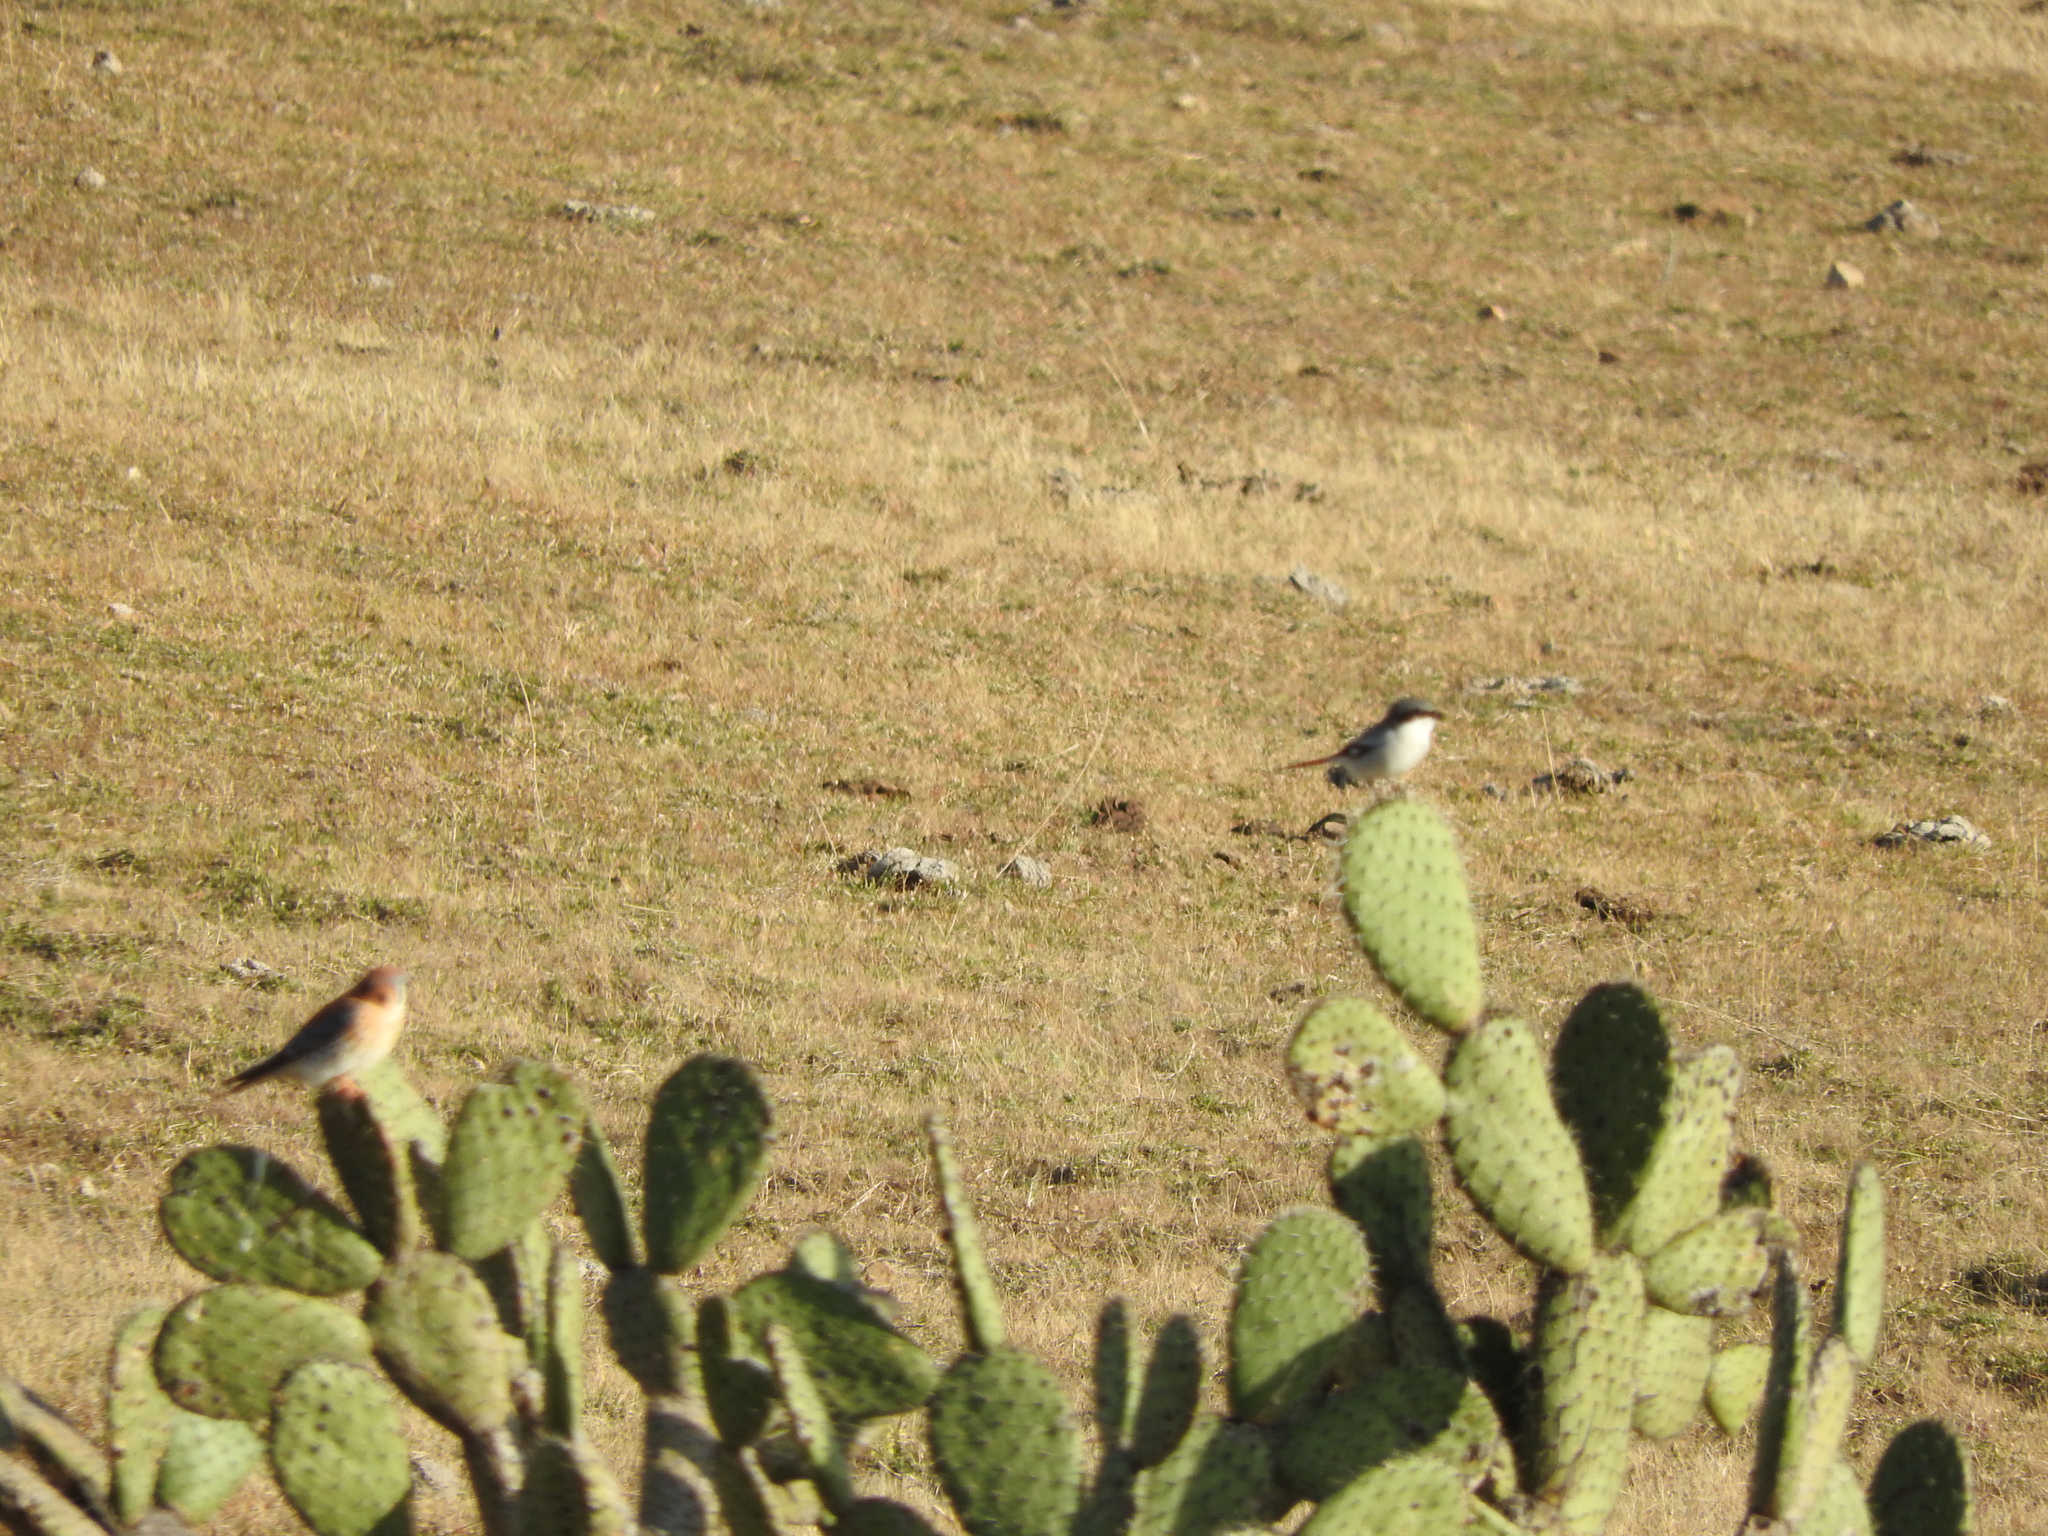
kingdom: Plantae
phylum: Tracheophyta
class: Magnoliopsida
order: Caryophyllales
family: Cactaceae
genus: Opuntia
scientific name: Opuntia
